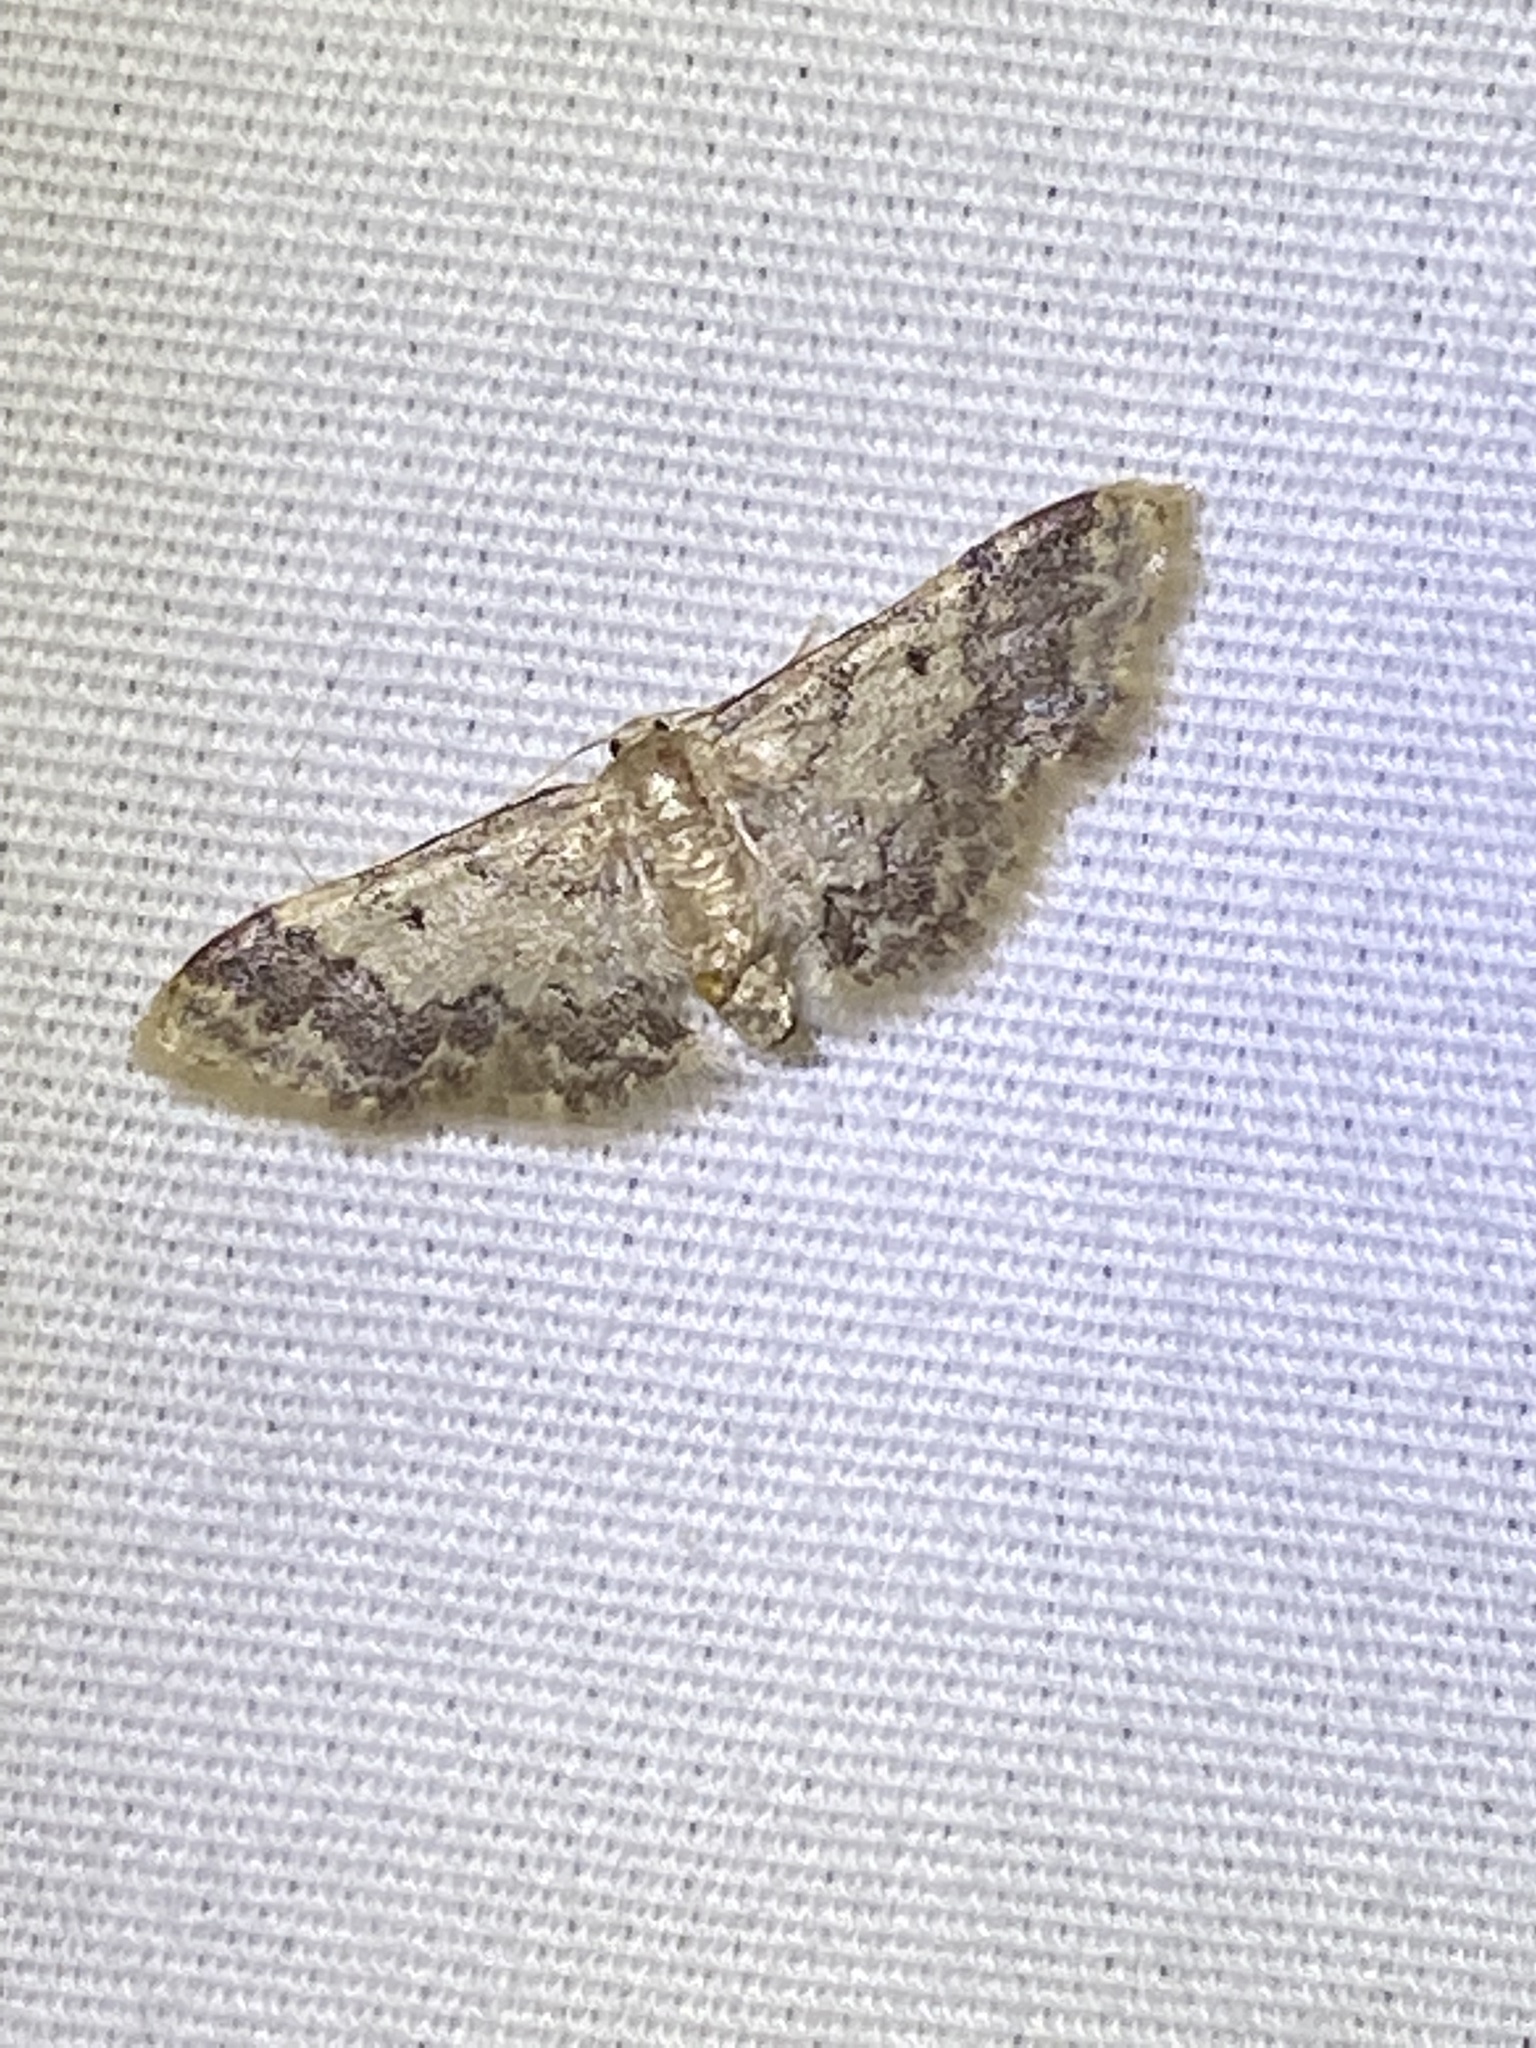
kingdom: Animalia
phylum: Arthropoda
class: Insecta
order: Lepidoptera
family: Geometridae
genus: Idaea
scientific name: Idaea furciferata
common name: Notch-winged wave
